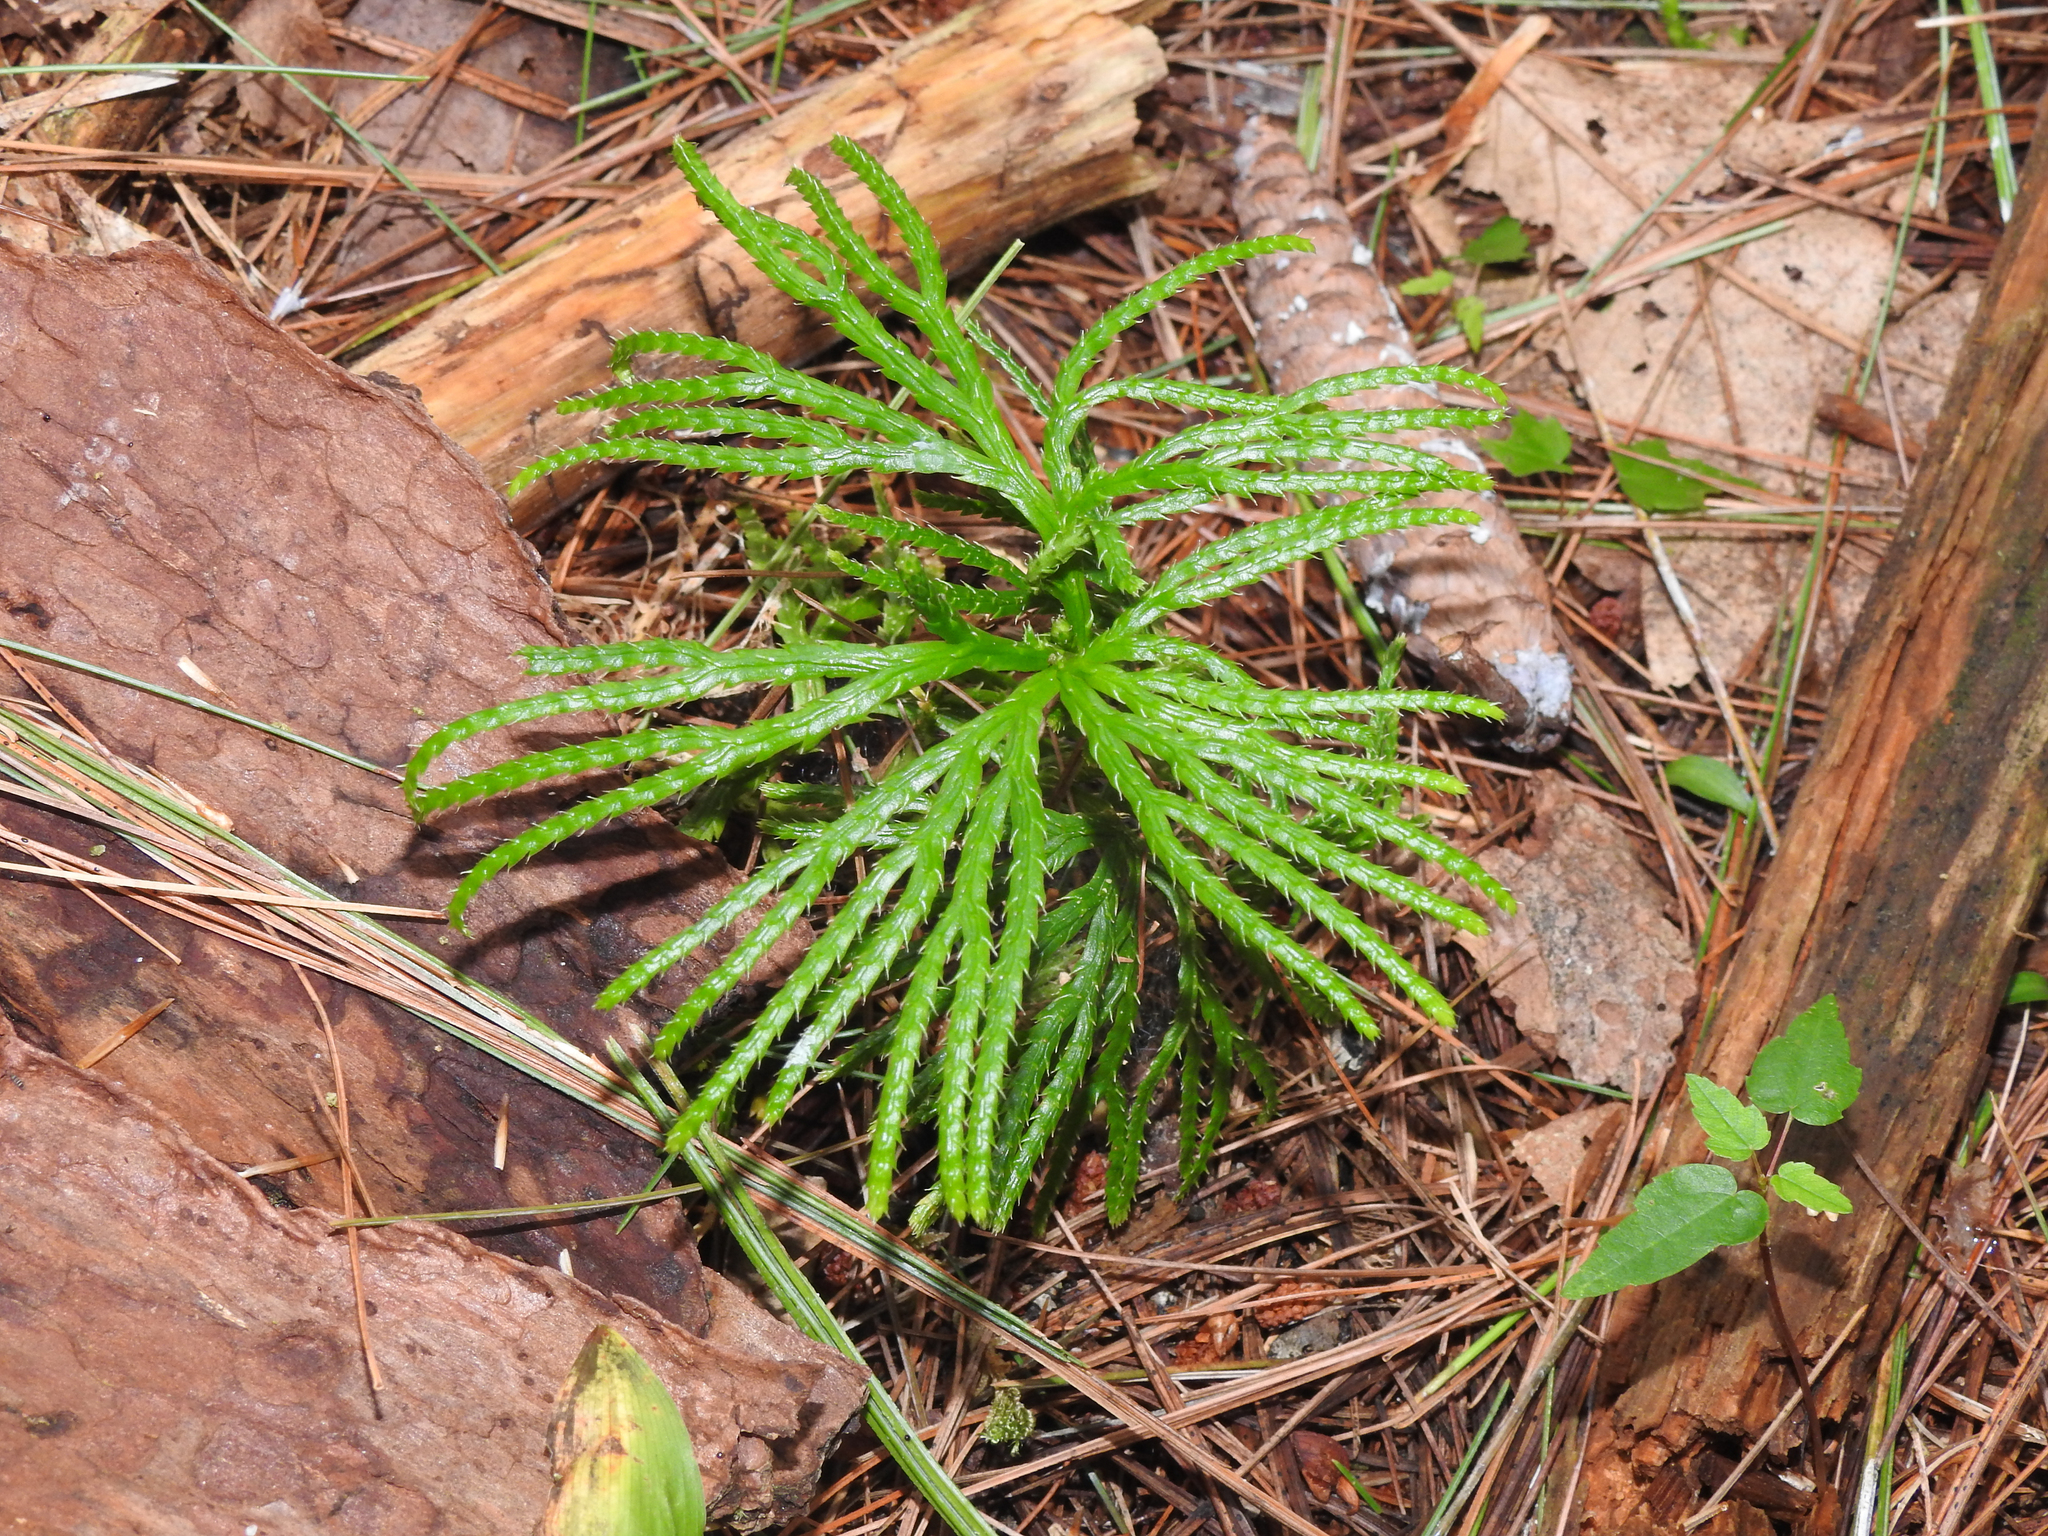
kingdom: Plantae
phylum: Tracheophyta
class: Lycopodiopsida
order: Lycopodiales
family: Lycopodiaceae
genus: Diphasiastrum
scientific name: Diphasiastrum digitatum
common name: Southern running-pine
